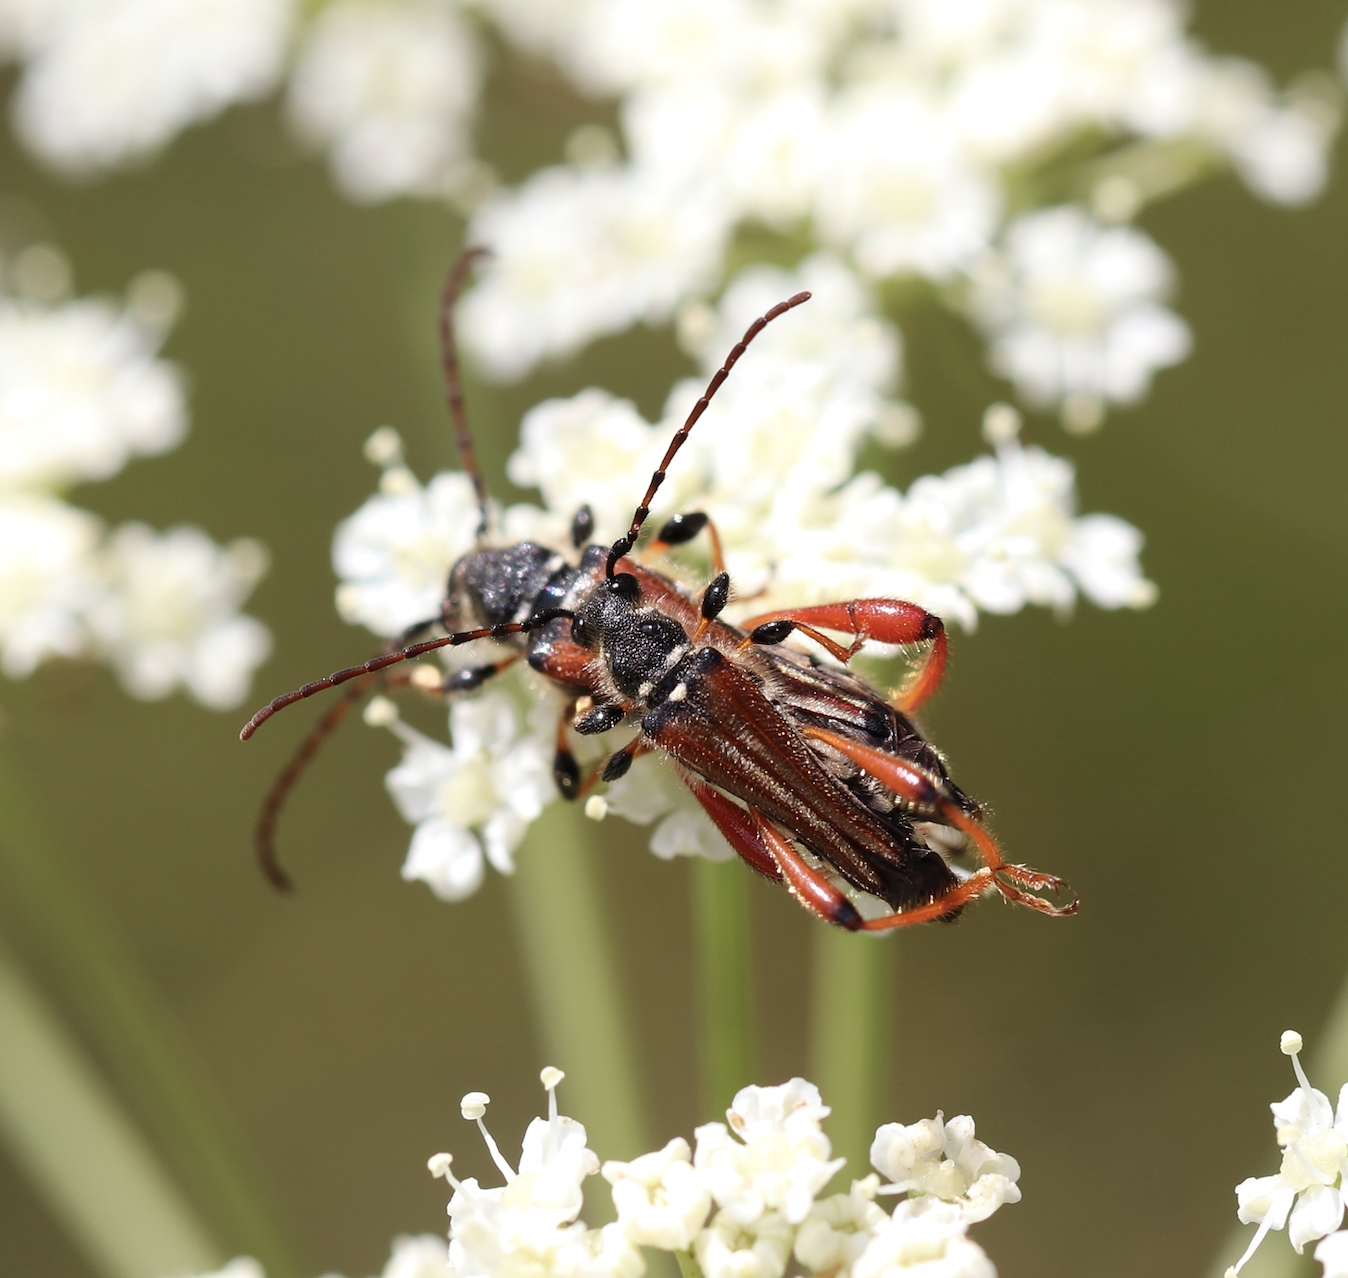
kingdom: Animalia
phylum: Arthropoda
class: Insecta
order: Coleoptera
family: Cerambycidae
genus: Stenopterus
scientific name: Stenopterus rufus
